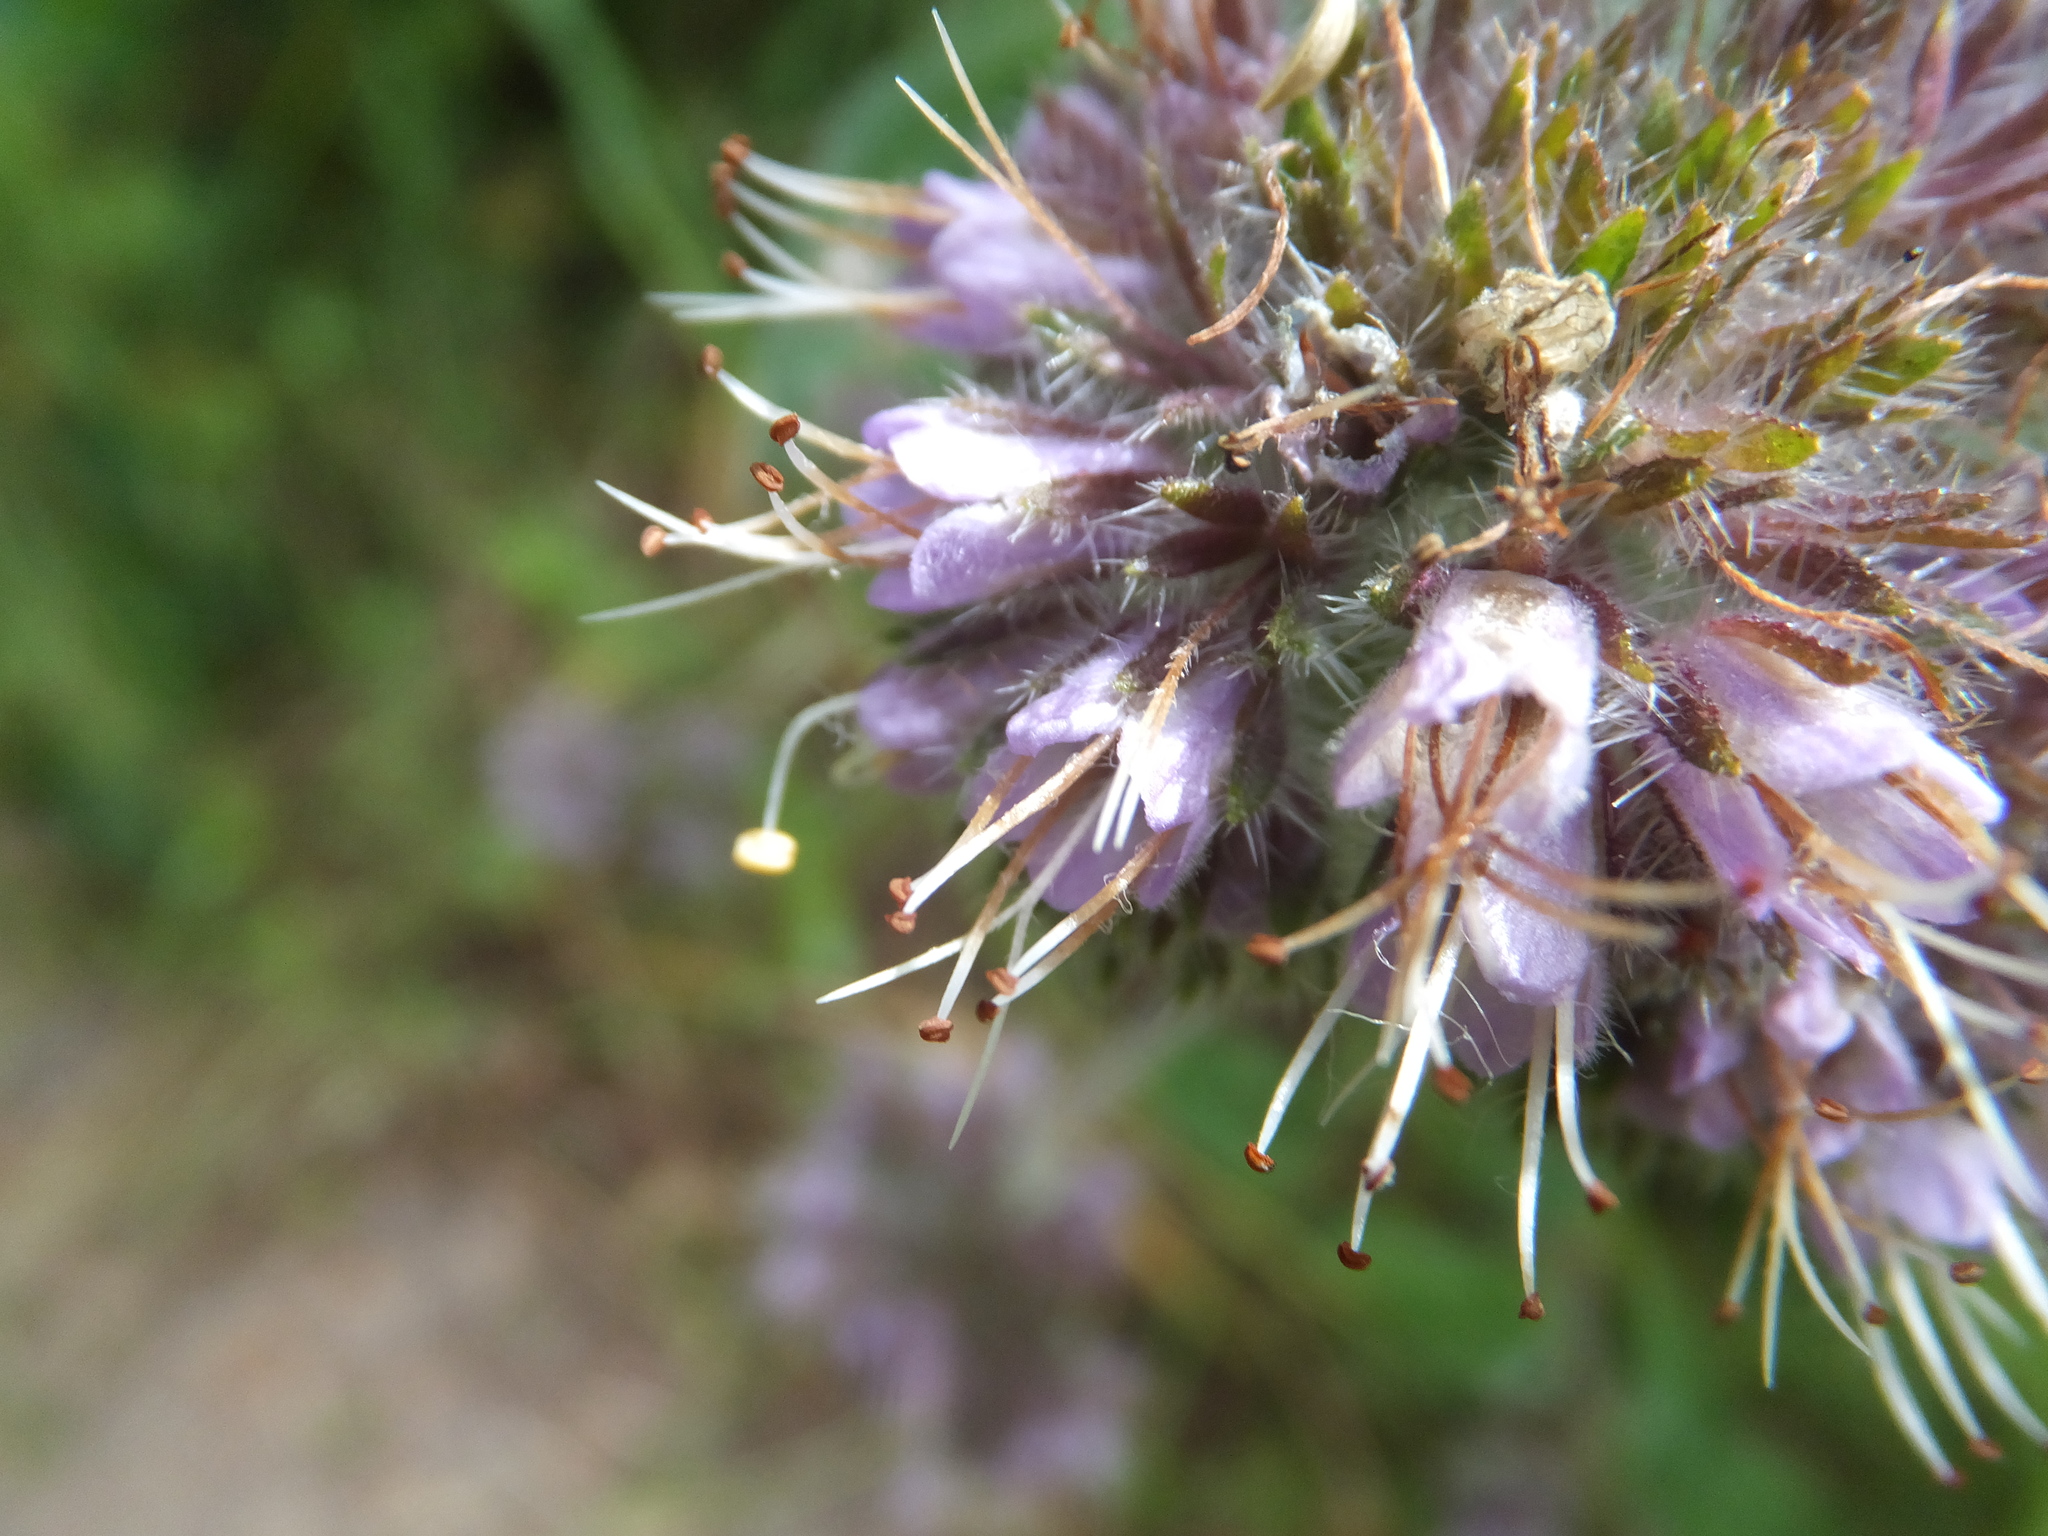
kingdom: Plantae
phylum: Tracheophyta
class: Magnoliopsida
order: Boraginales
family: Hydrophyllaceae
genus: Phacelia
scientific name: Phacelia californica
